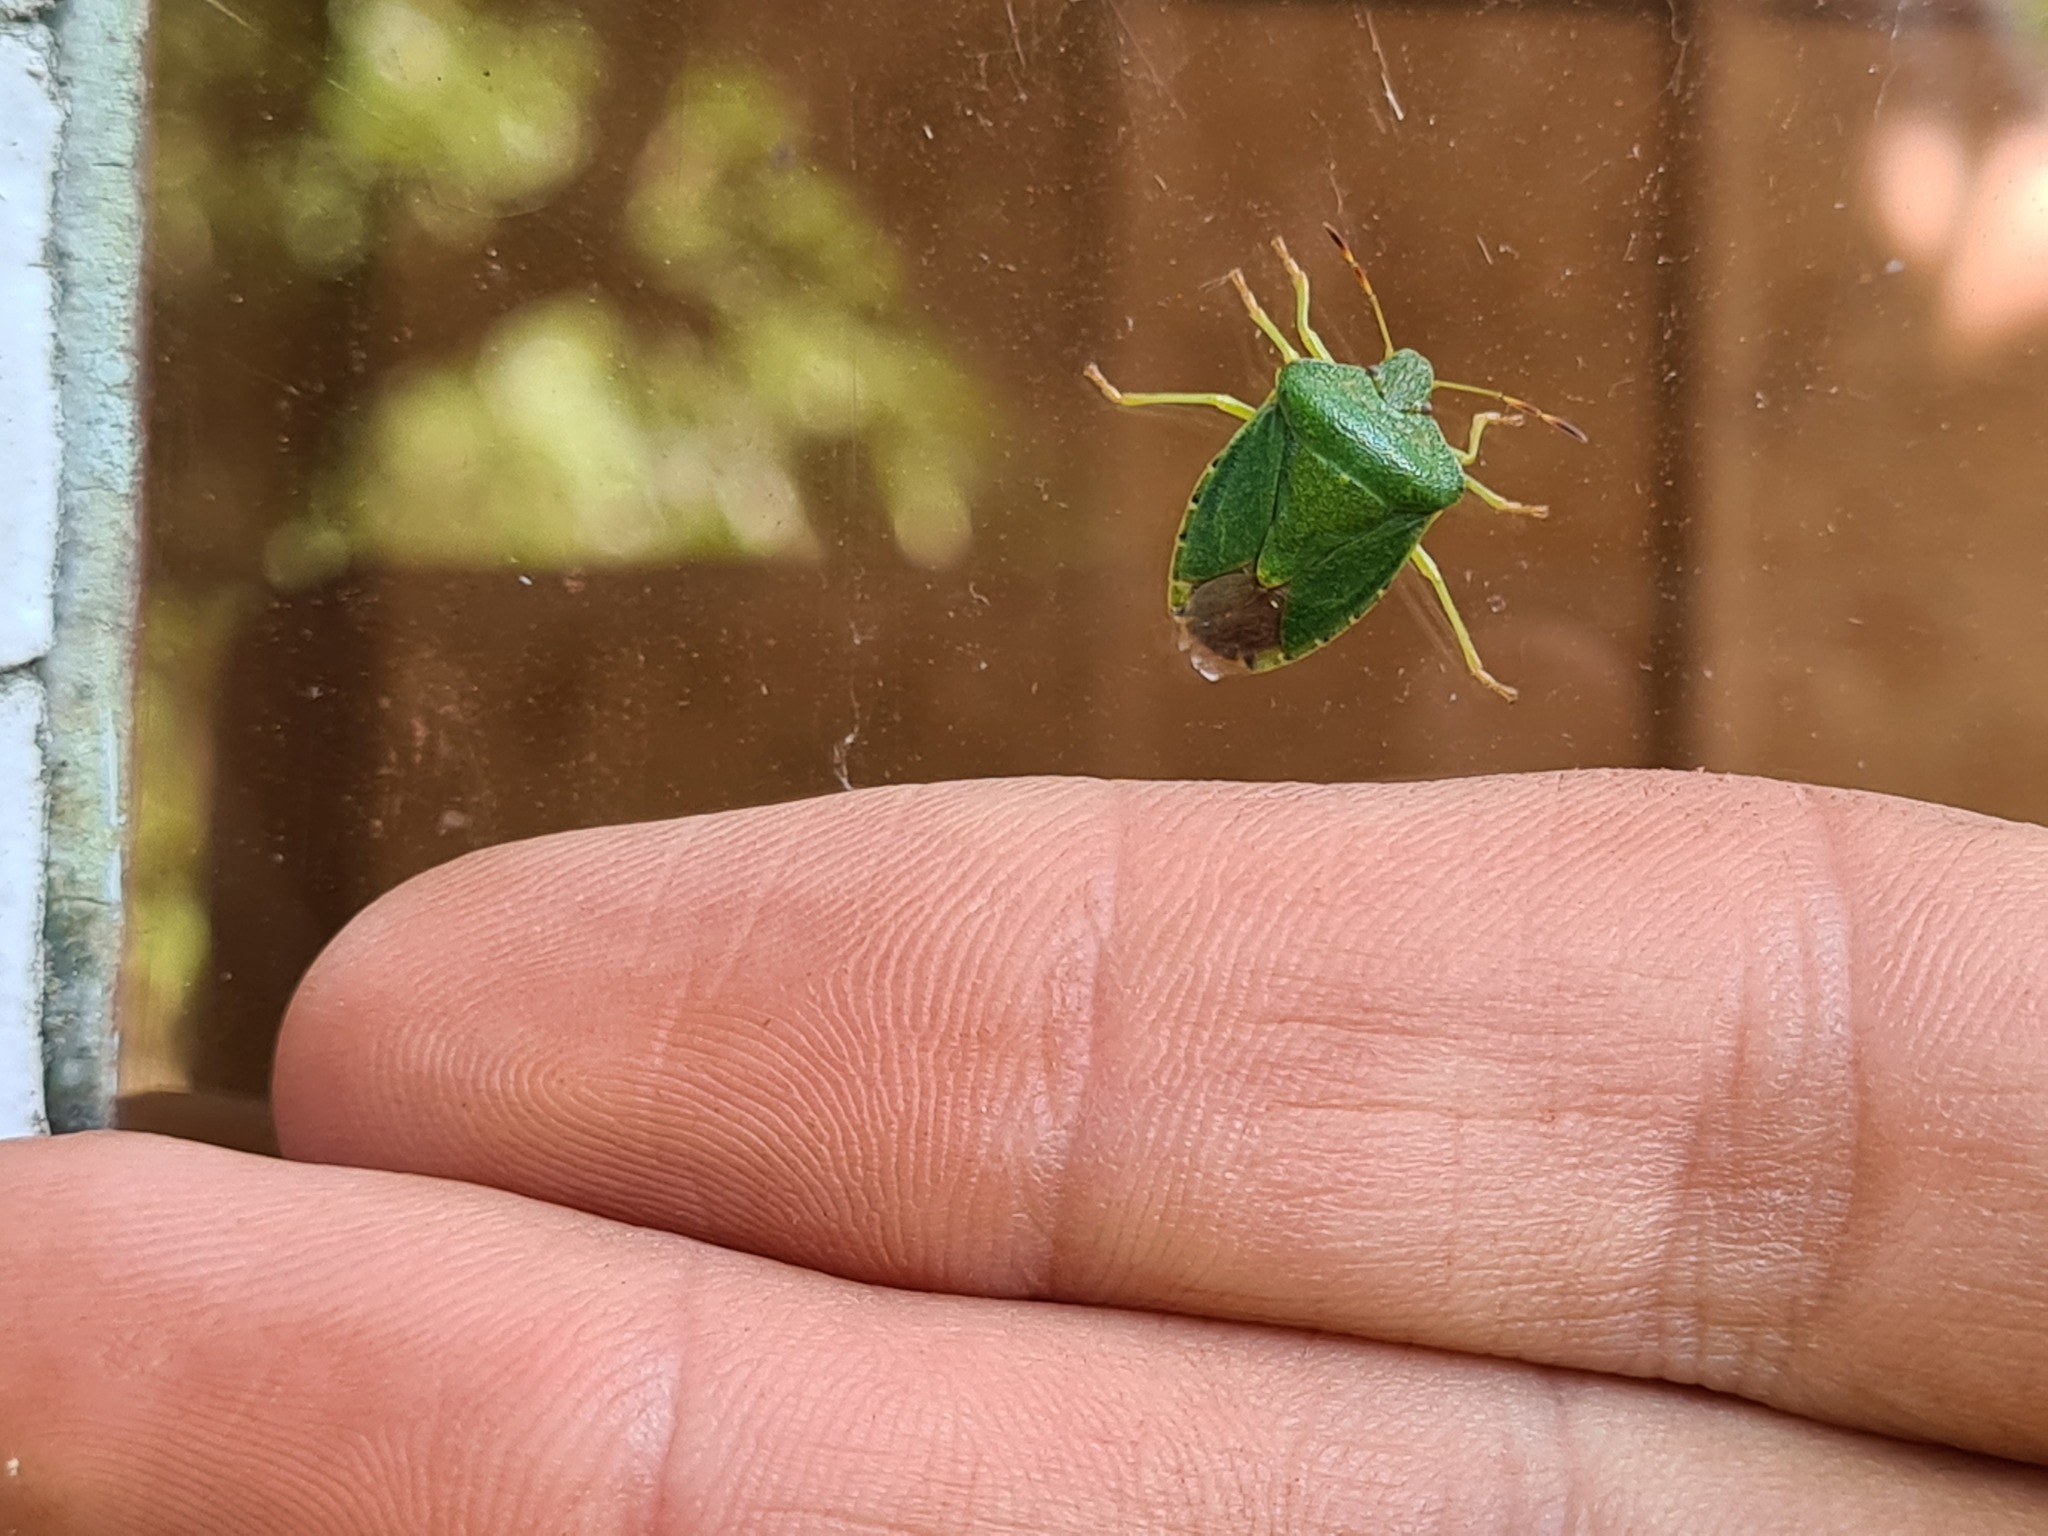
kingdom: Animalia
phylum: Arthropoda
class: Insecta
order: Hemiptera
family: Pentatomidae
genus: Palomena
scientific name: Palomena prasina
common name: Green shieldbug
